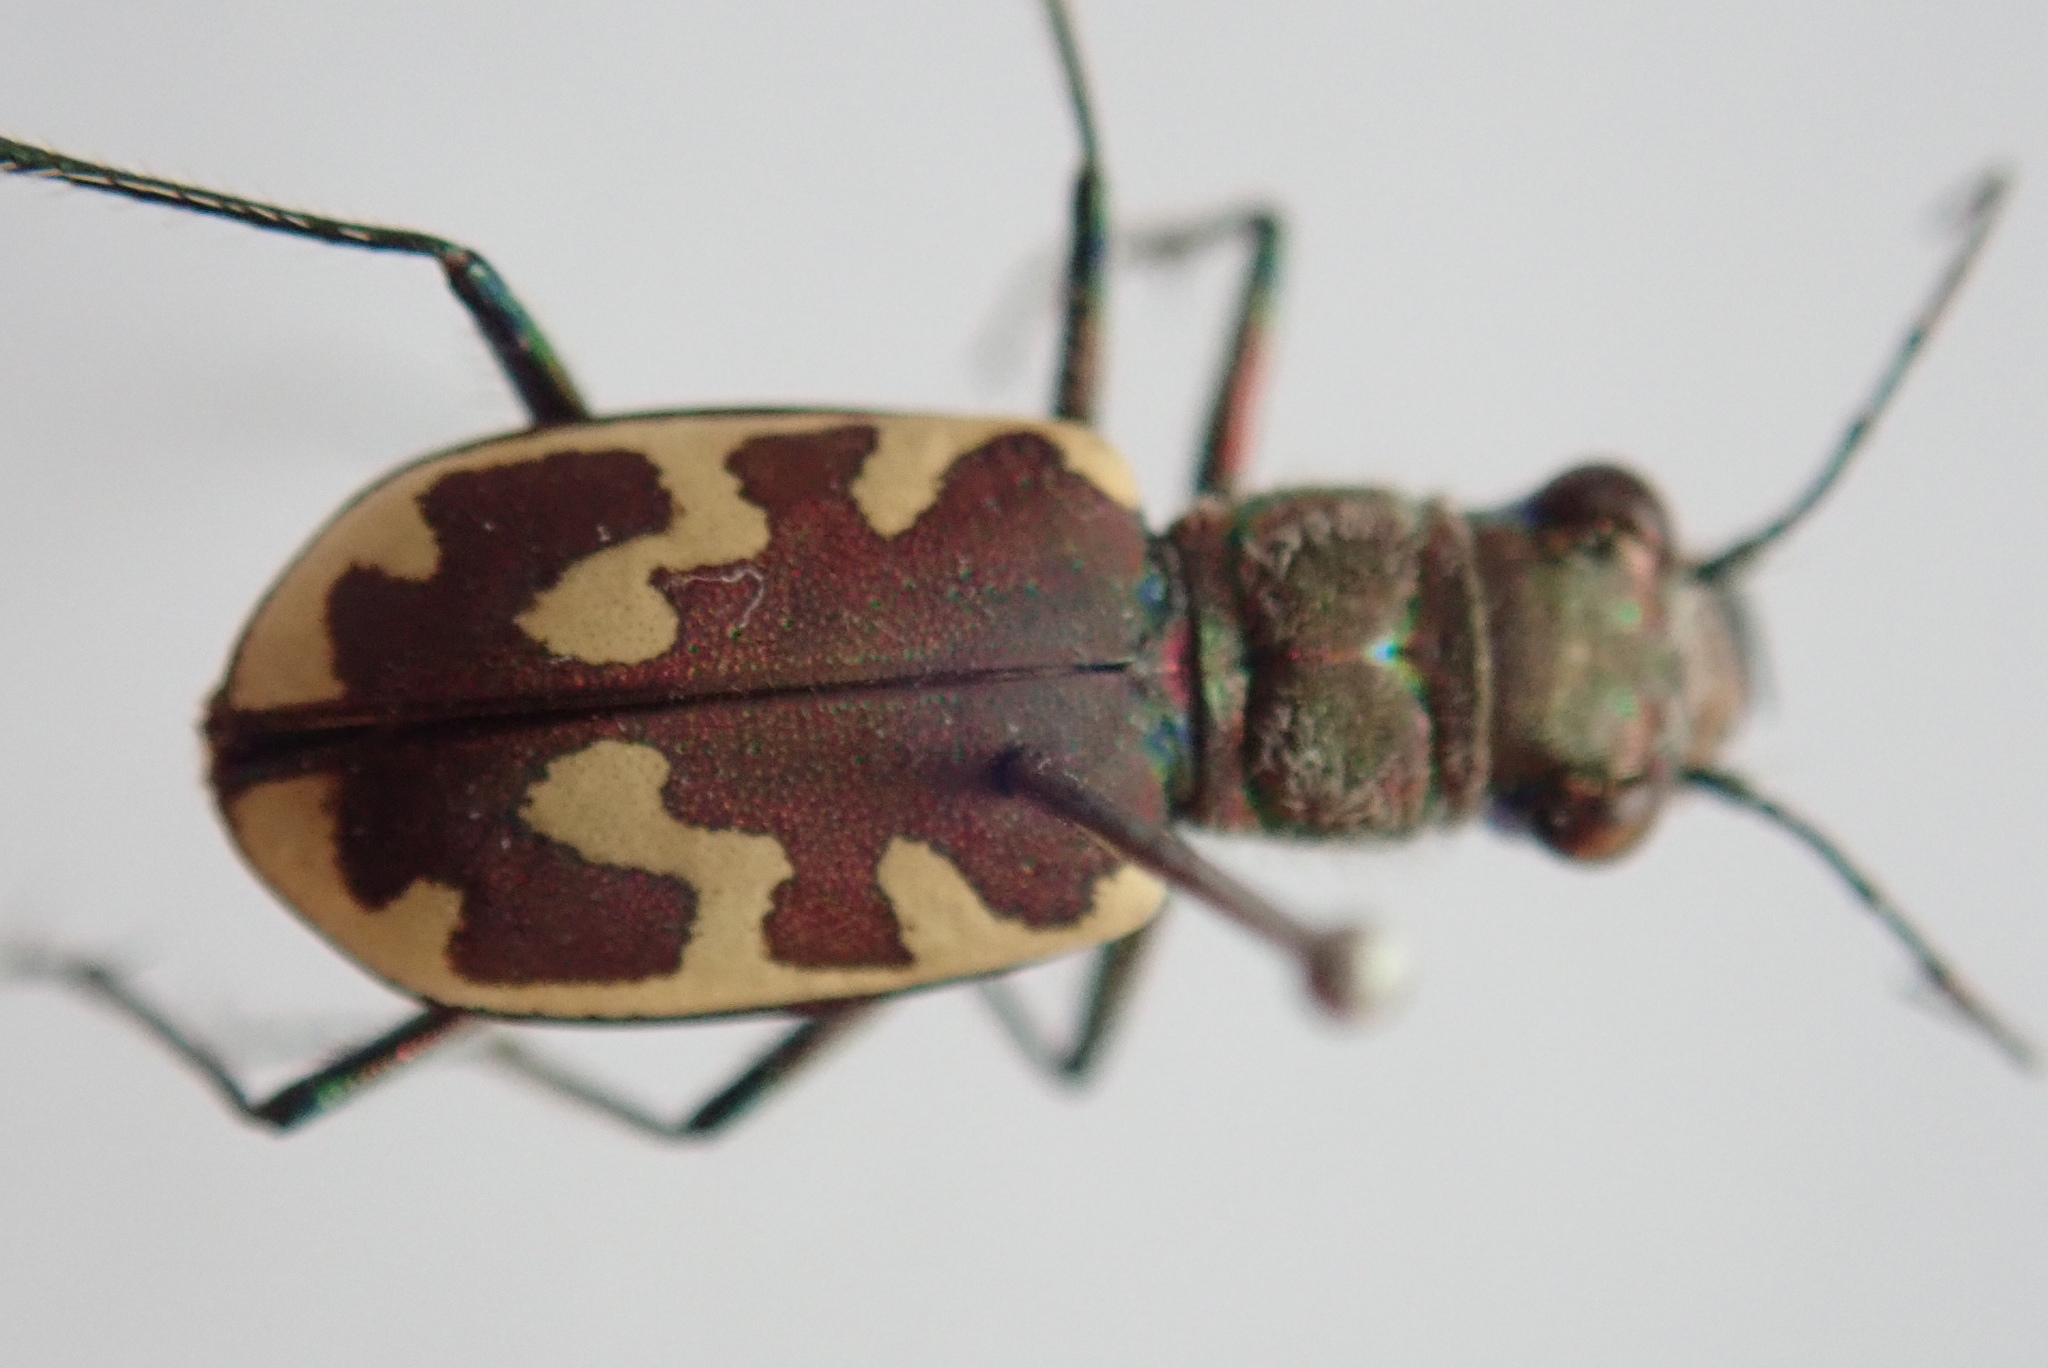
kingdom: Animalia
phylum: Arthropoda
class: Insecta
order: Coleoptera
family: Carabidae
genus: Cicindela
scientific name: Cicindela formosa
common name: Big sand tiger beetle
